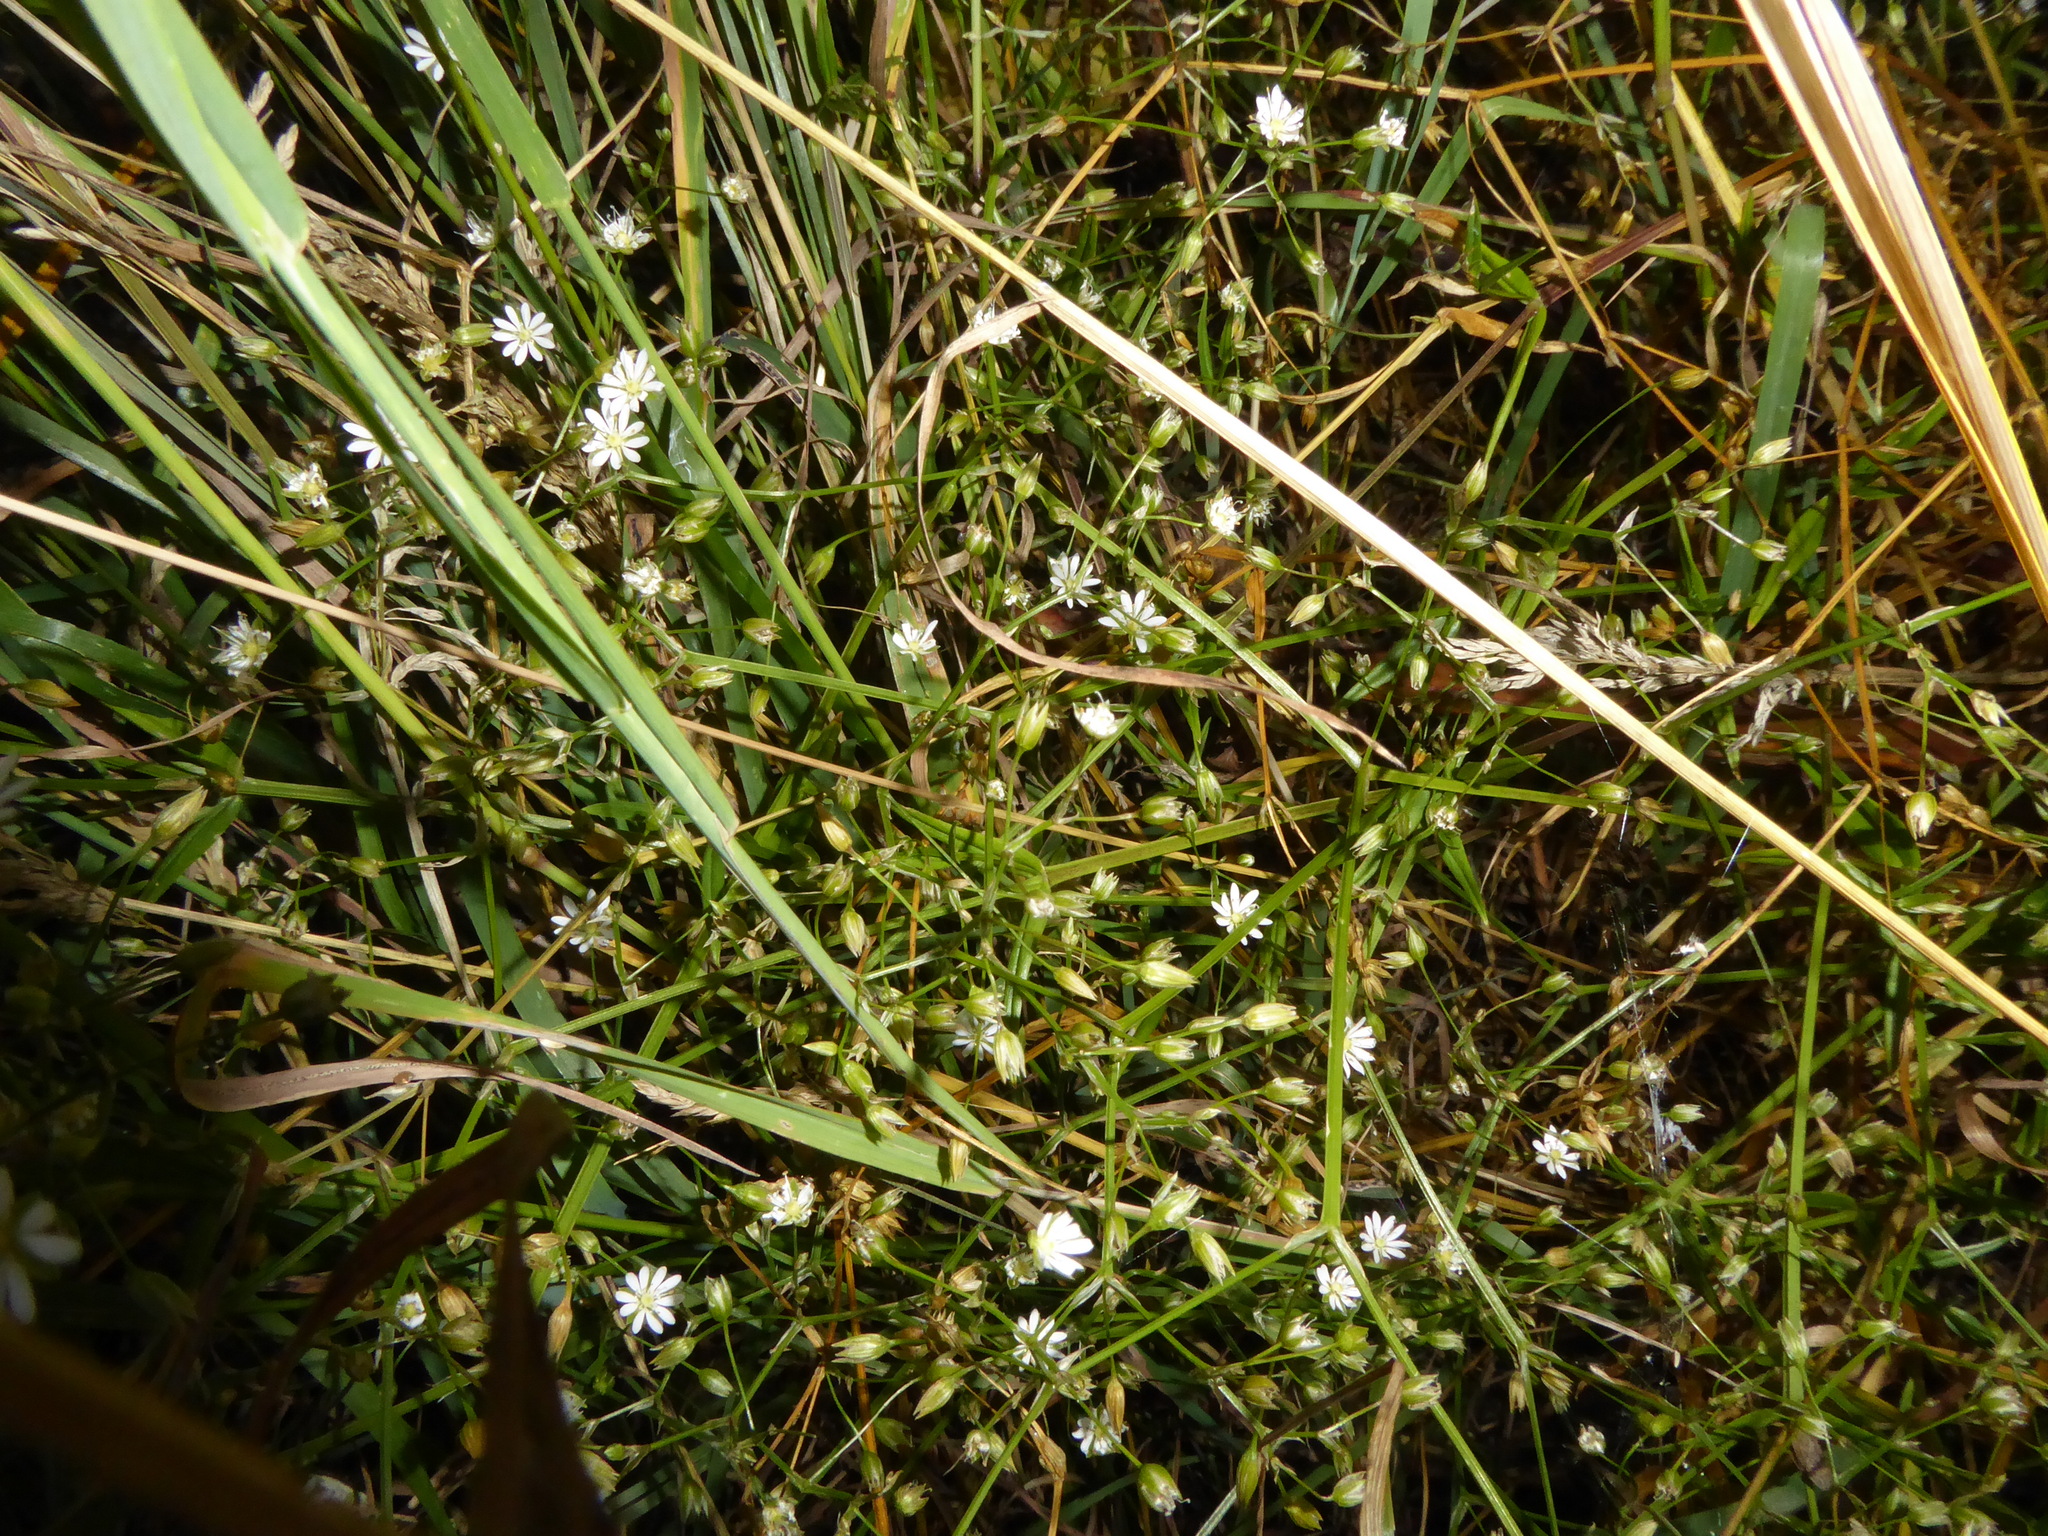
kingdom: Plantae
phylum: Tracheophyta
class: Magnoliopsida
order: Caryophyllales
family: Caryophyllaceae
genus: Stellaria
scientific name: Stellaria graminea
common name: Grass-like starwort
